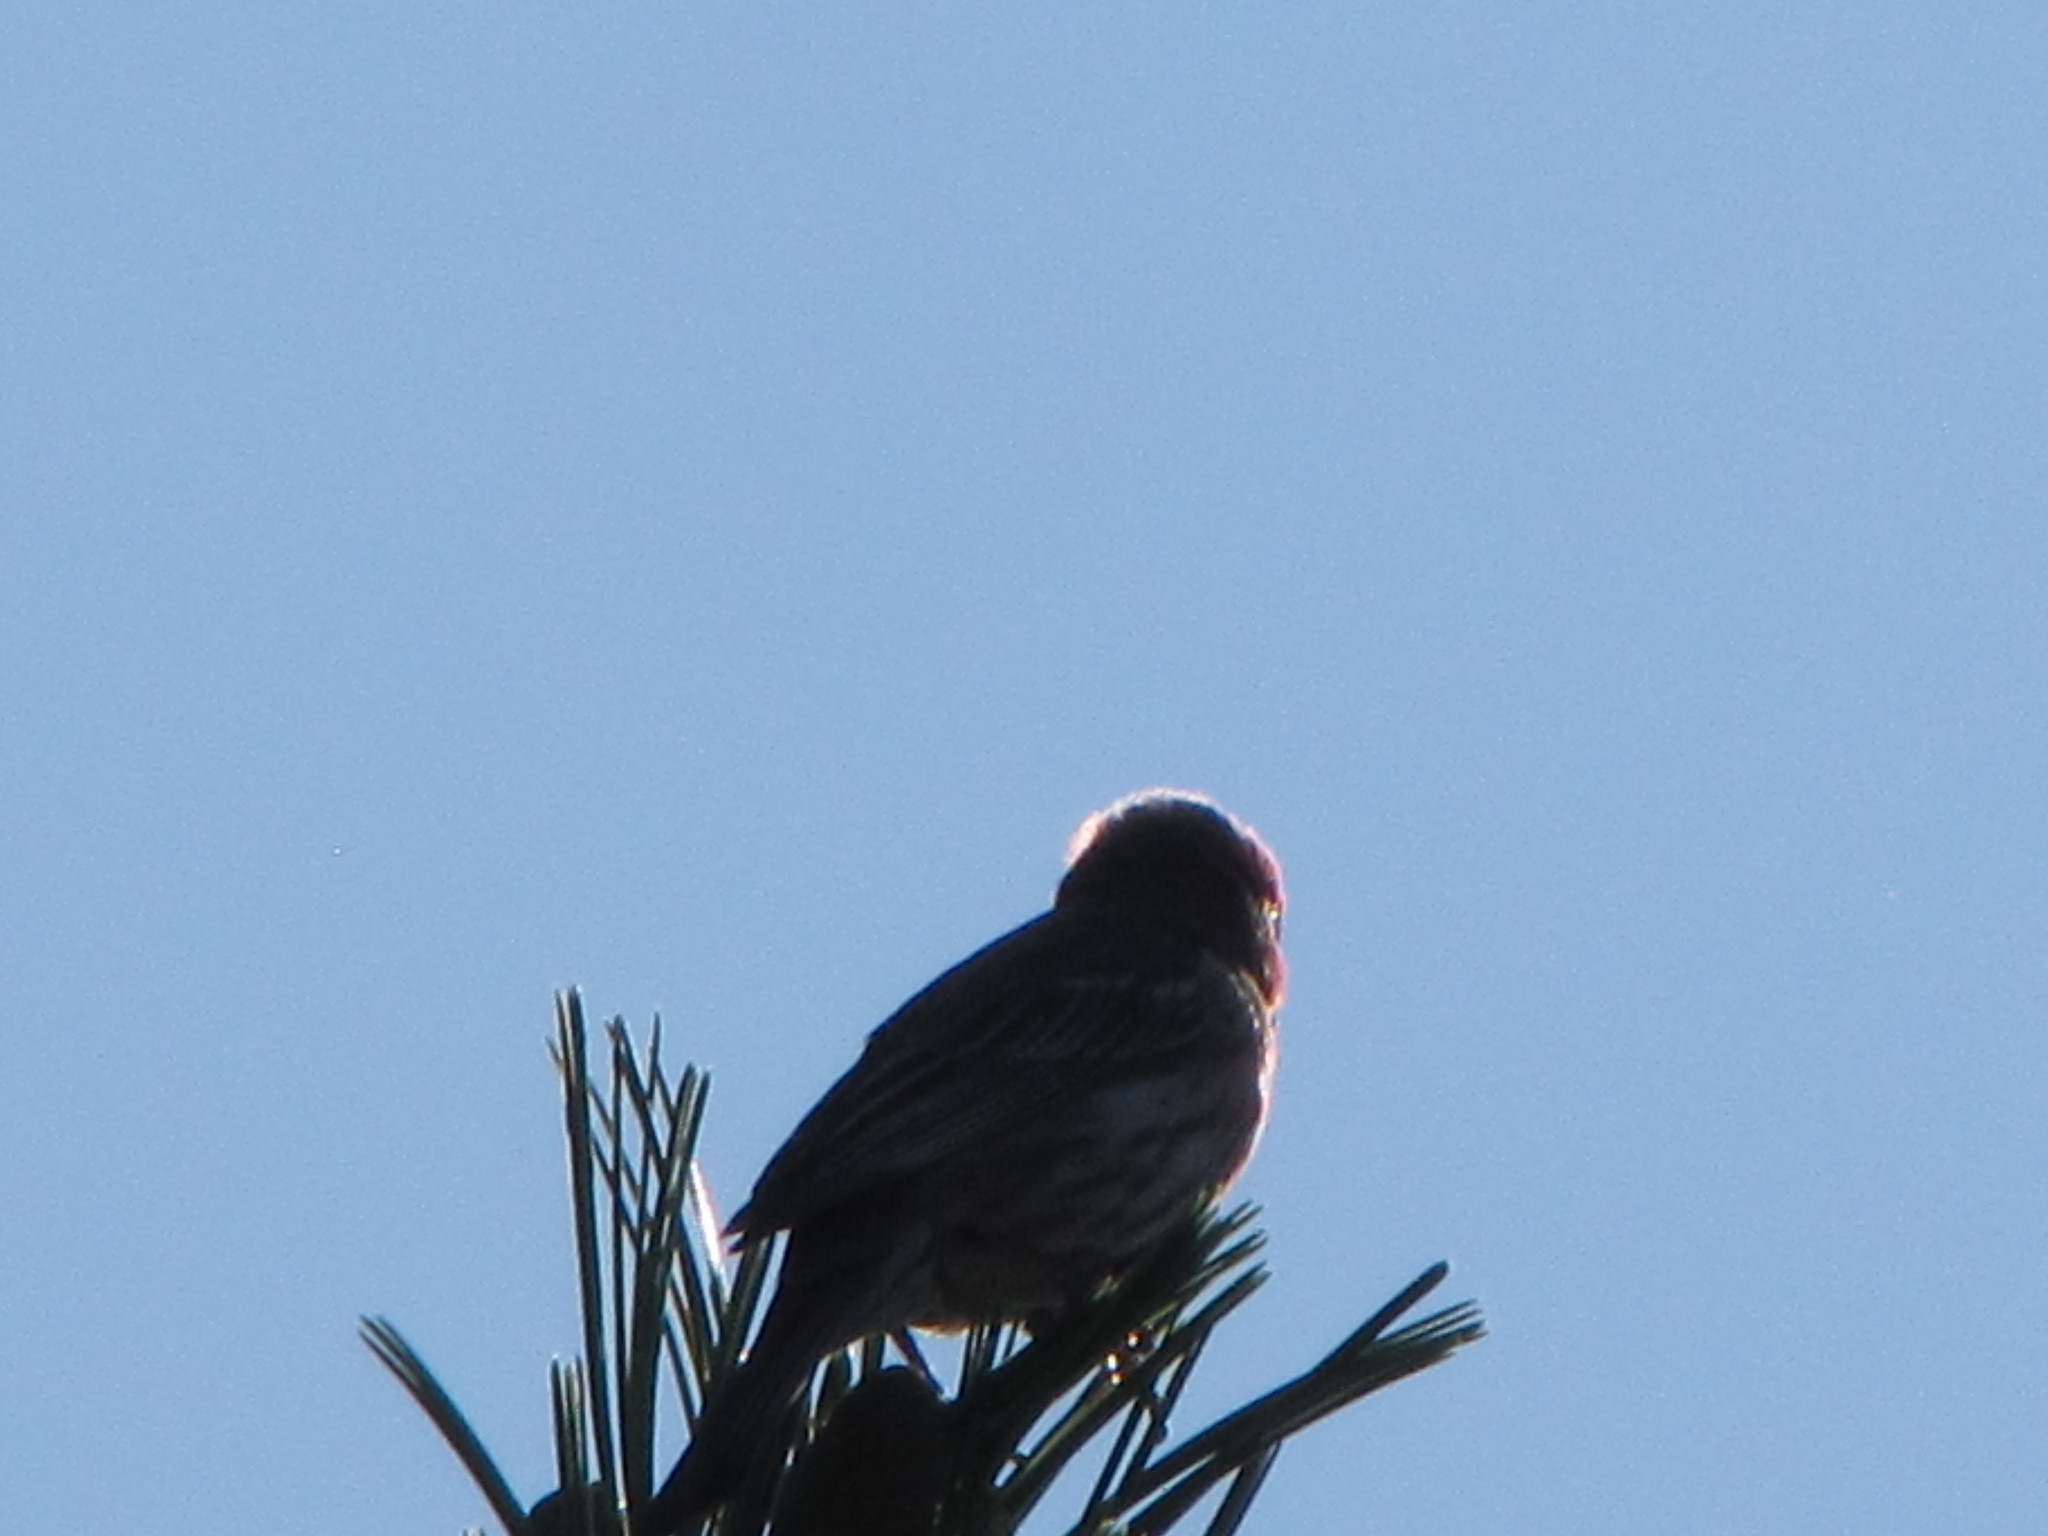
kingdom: Animalia
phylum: Chordata
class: Aves
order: Passeriformes
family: Fringillidae
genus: Haemorhous
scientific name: Haemorhous mexicanus
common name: House finch
